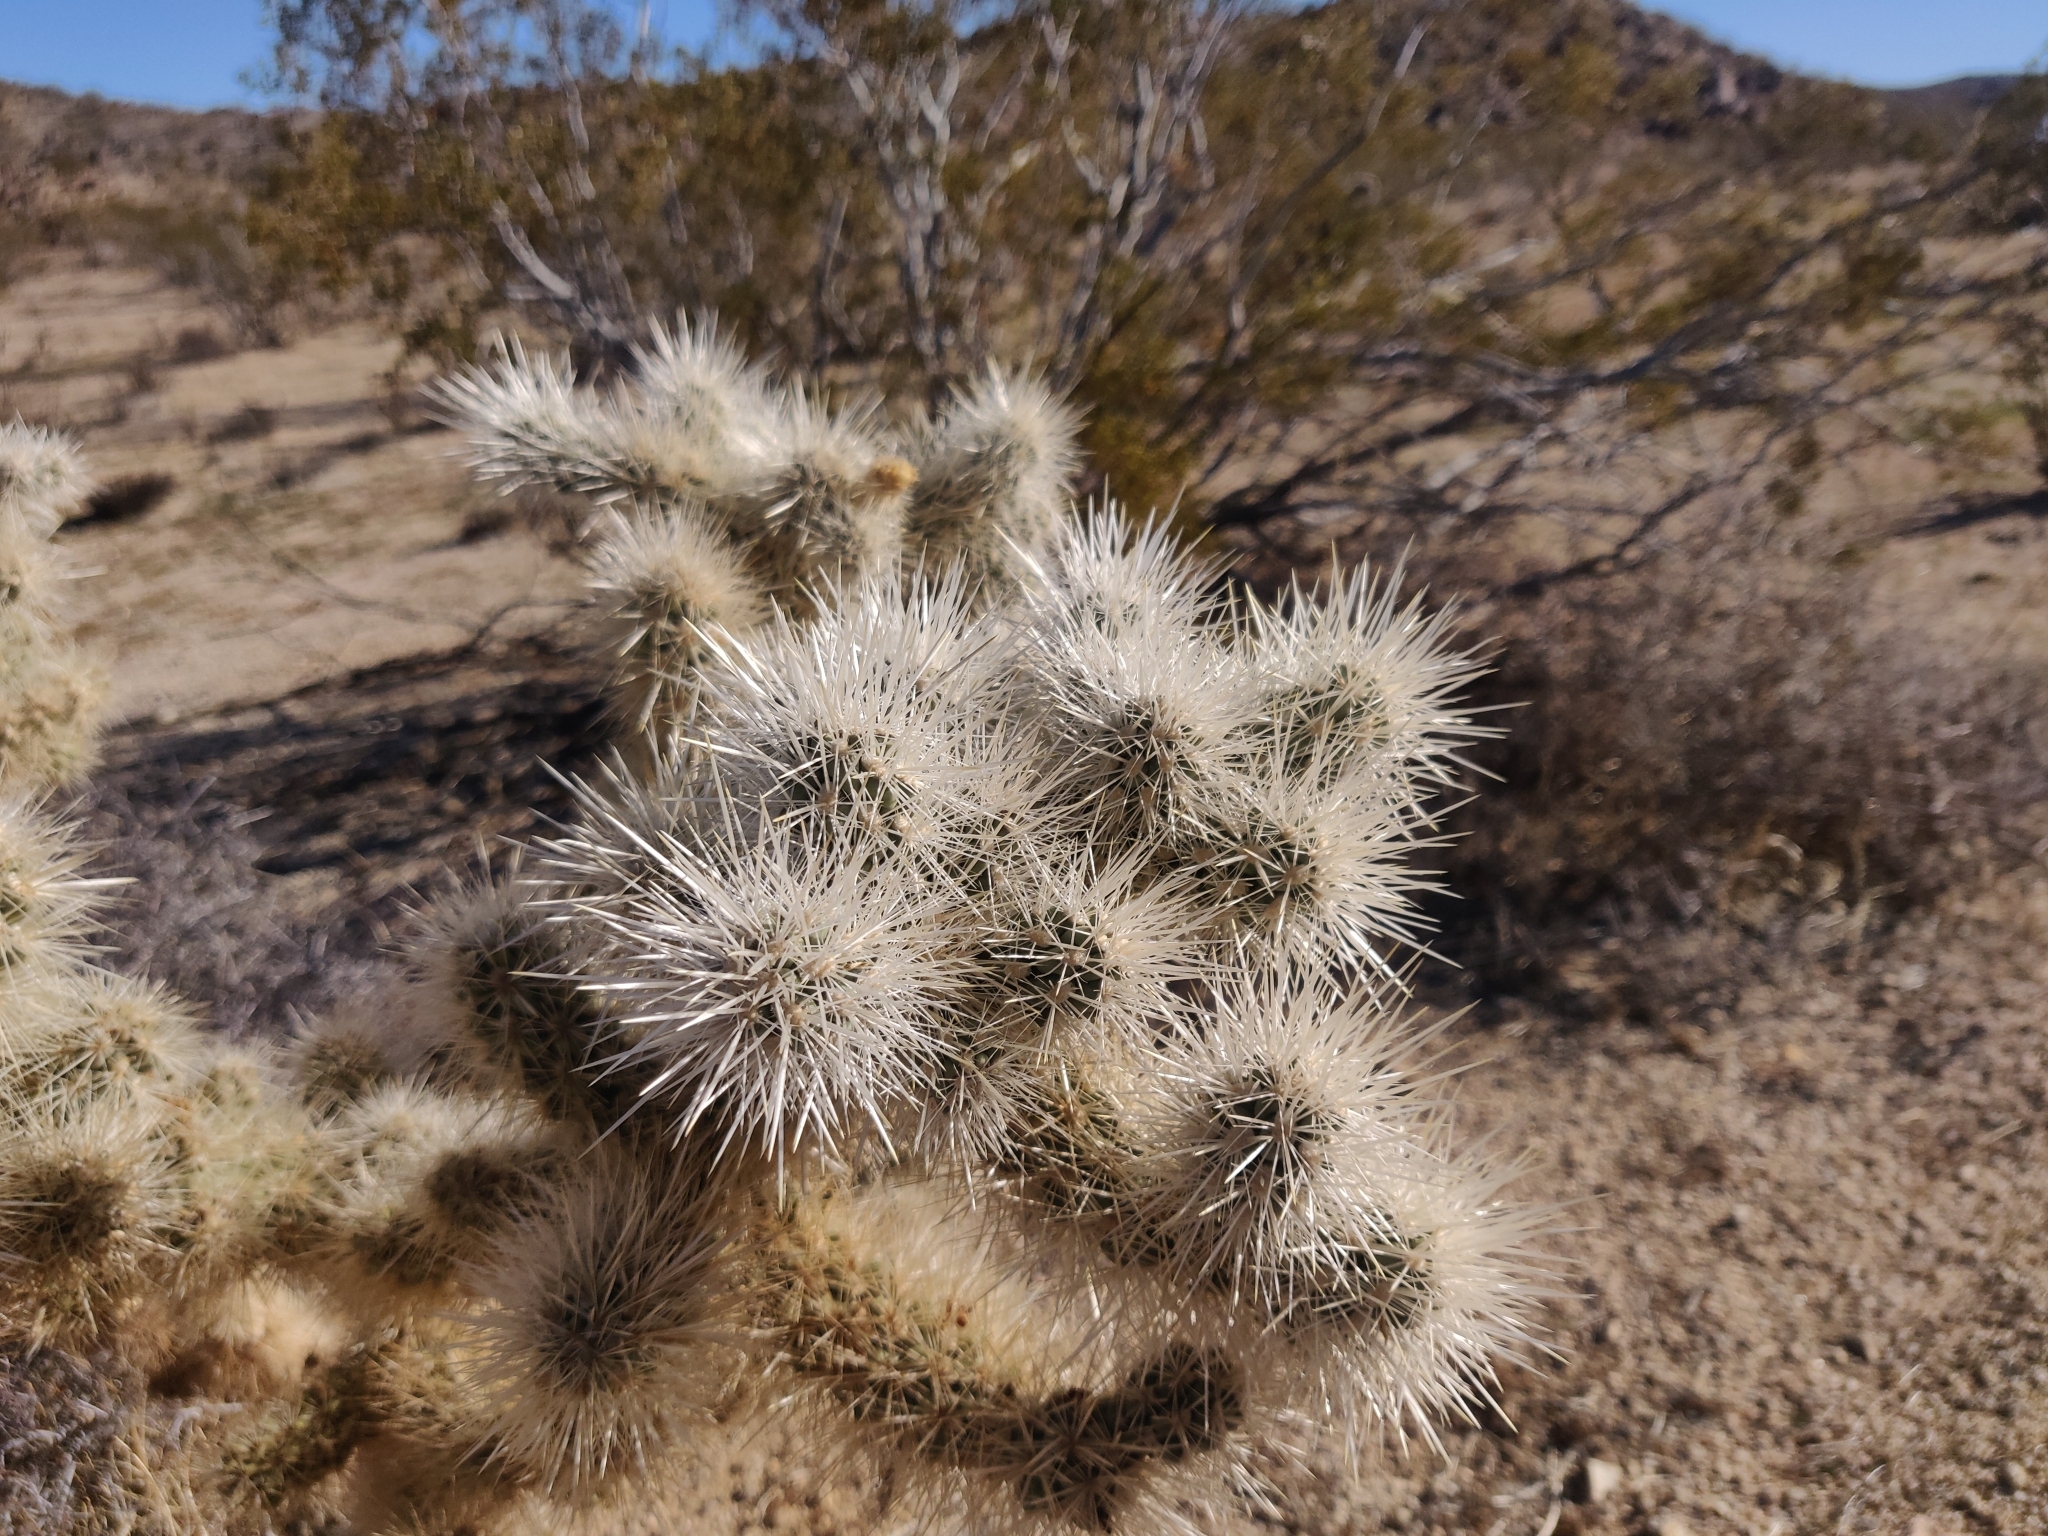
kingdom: Plantae
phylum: Tracheophyta
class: Magnoliopsida
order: Caryophyllales
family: Cactaceae
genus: Cylindropuntia
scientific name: Cylindropuntia echinocarpa
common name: Ground cholla
